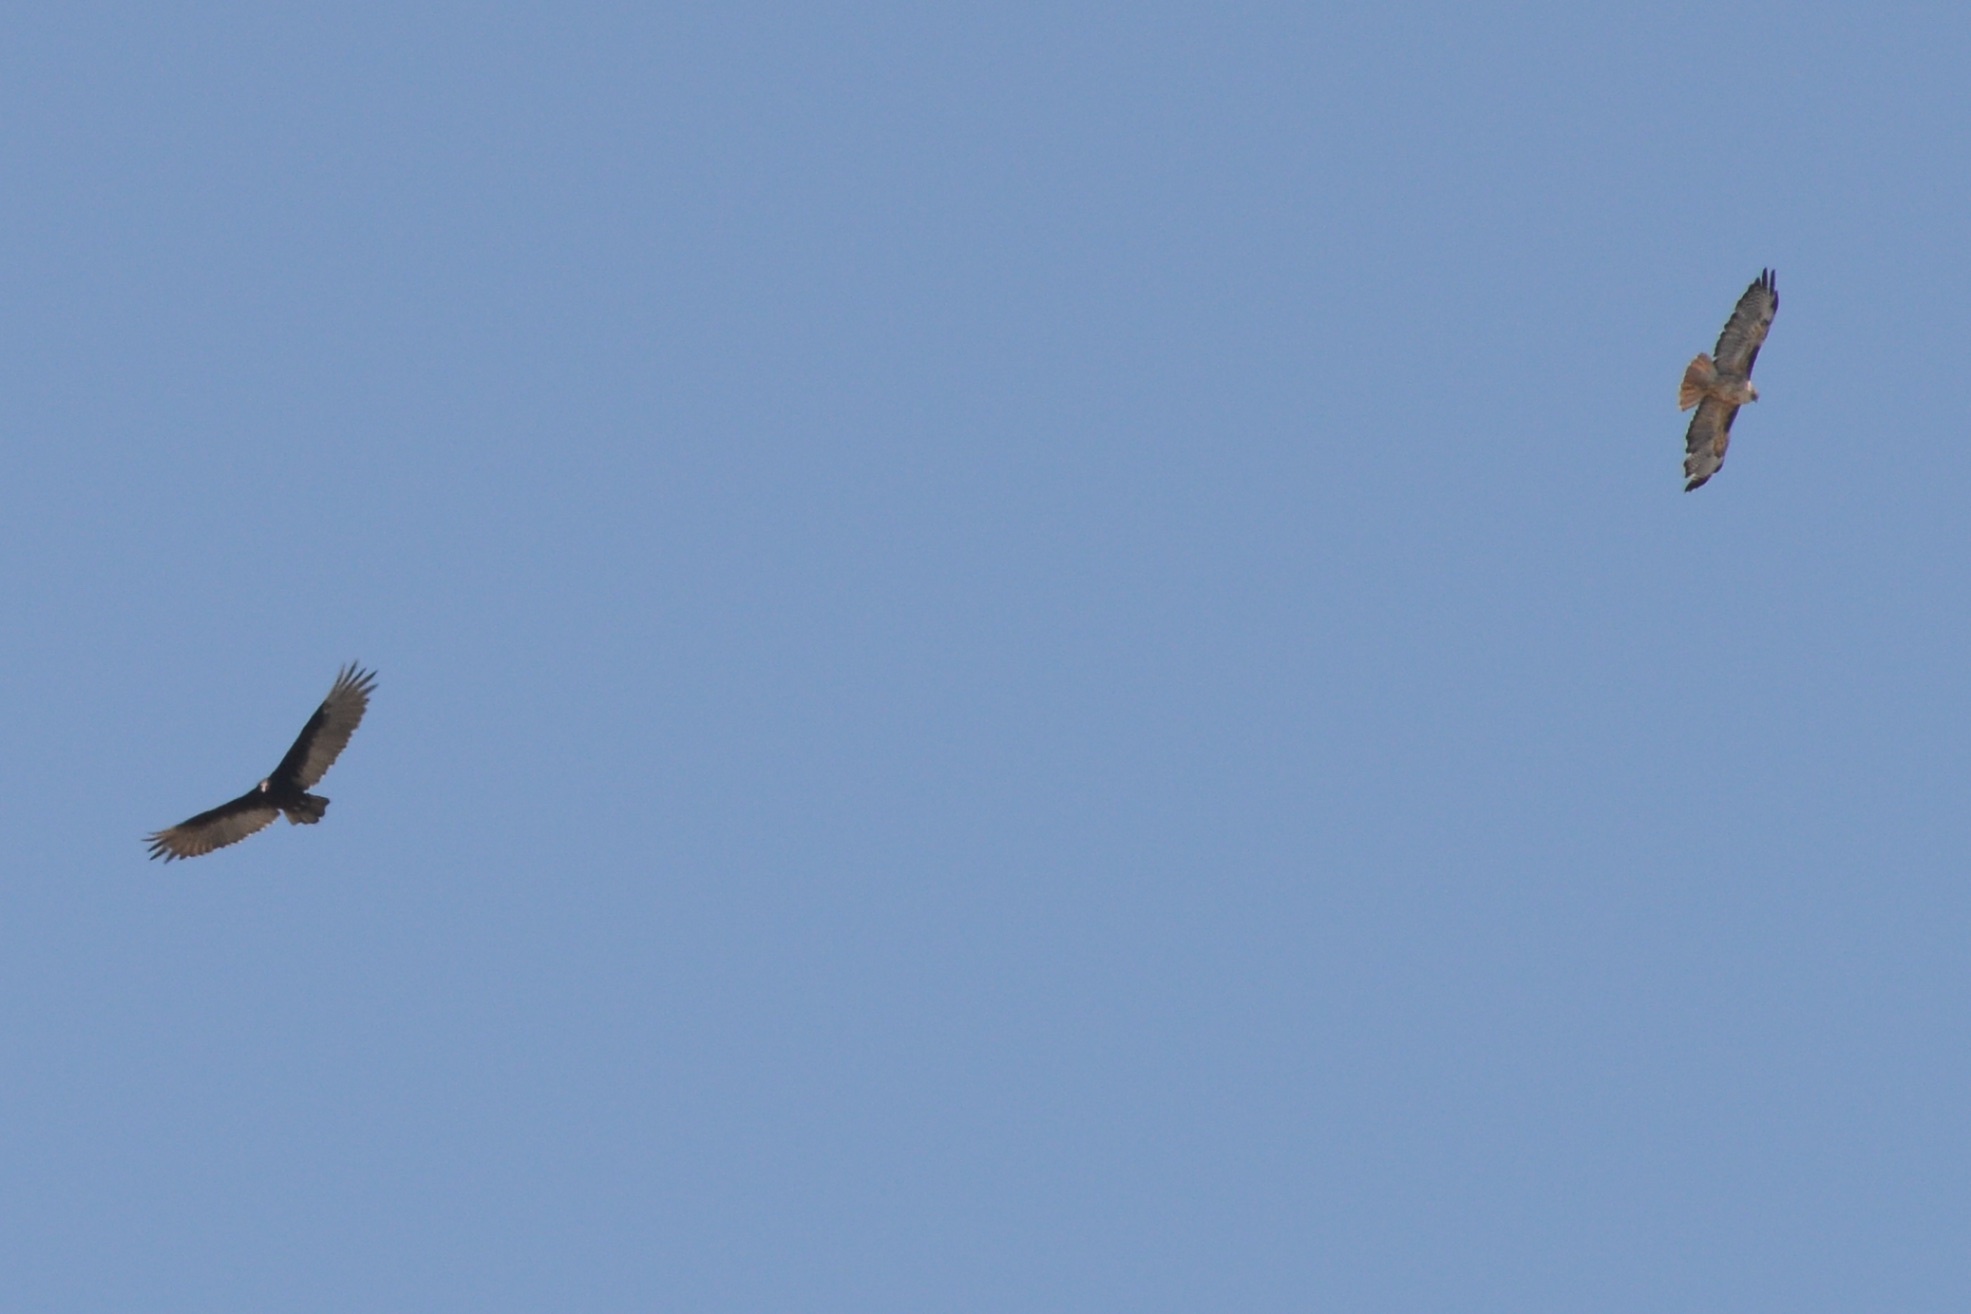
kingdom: Animalia
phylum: Chordata
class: Aves
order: Accipitriformes
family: Cathartidae
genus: Cathartes
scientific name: Cathartes aura
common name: Turkey vulture
